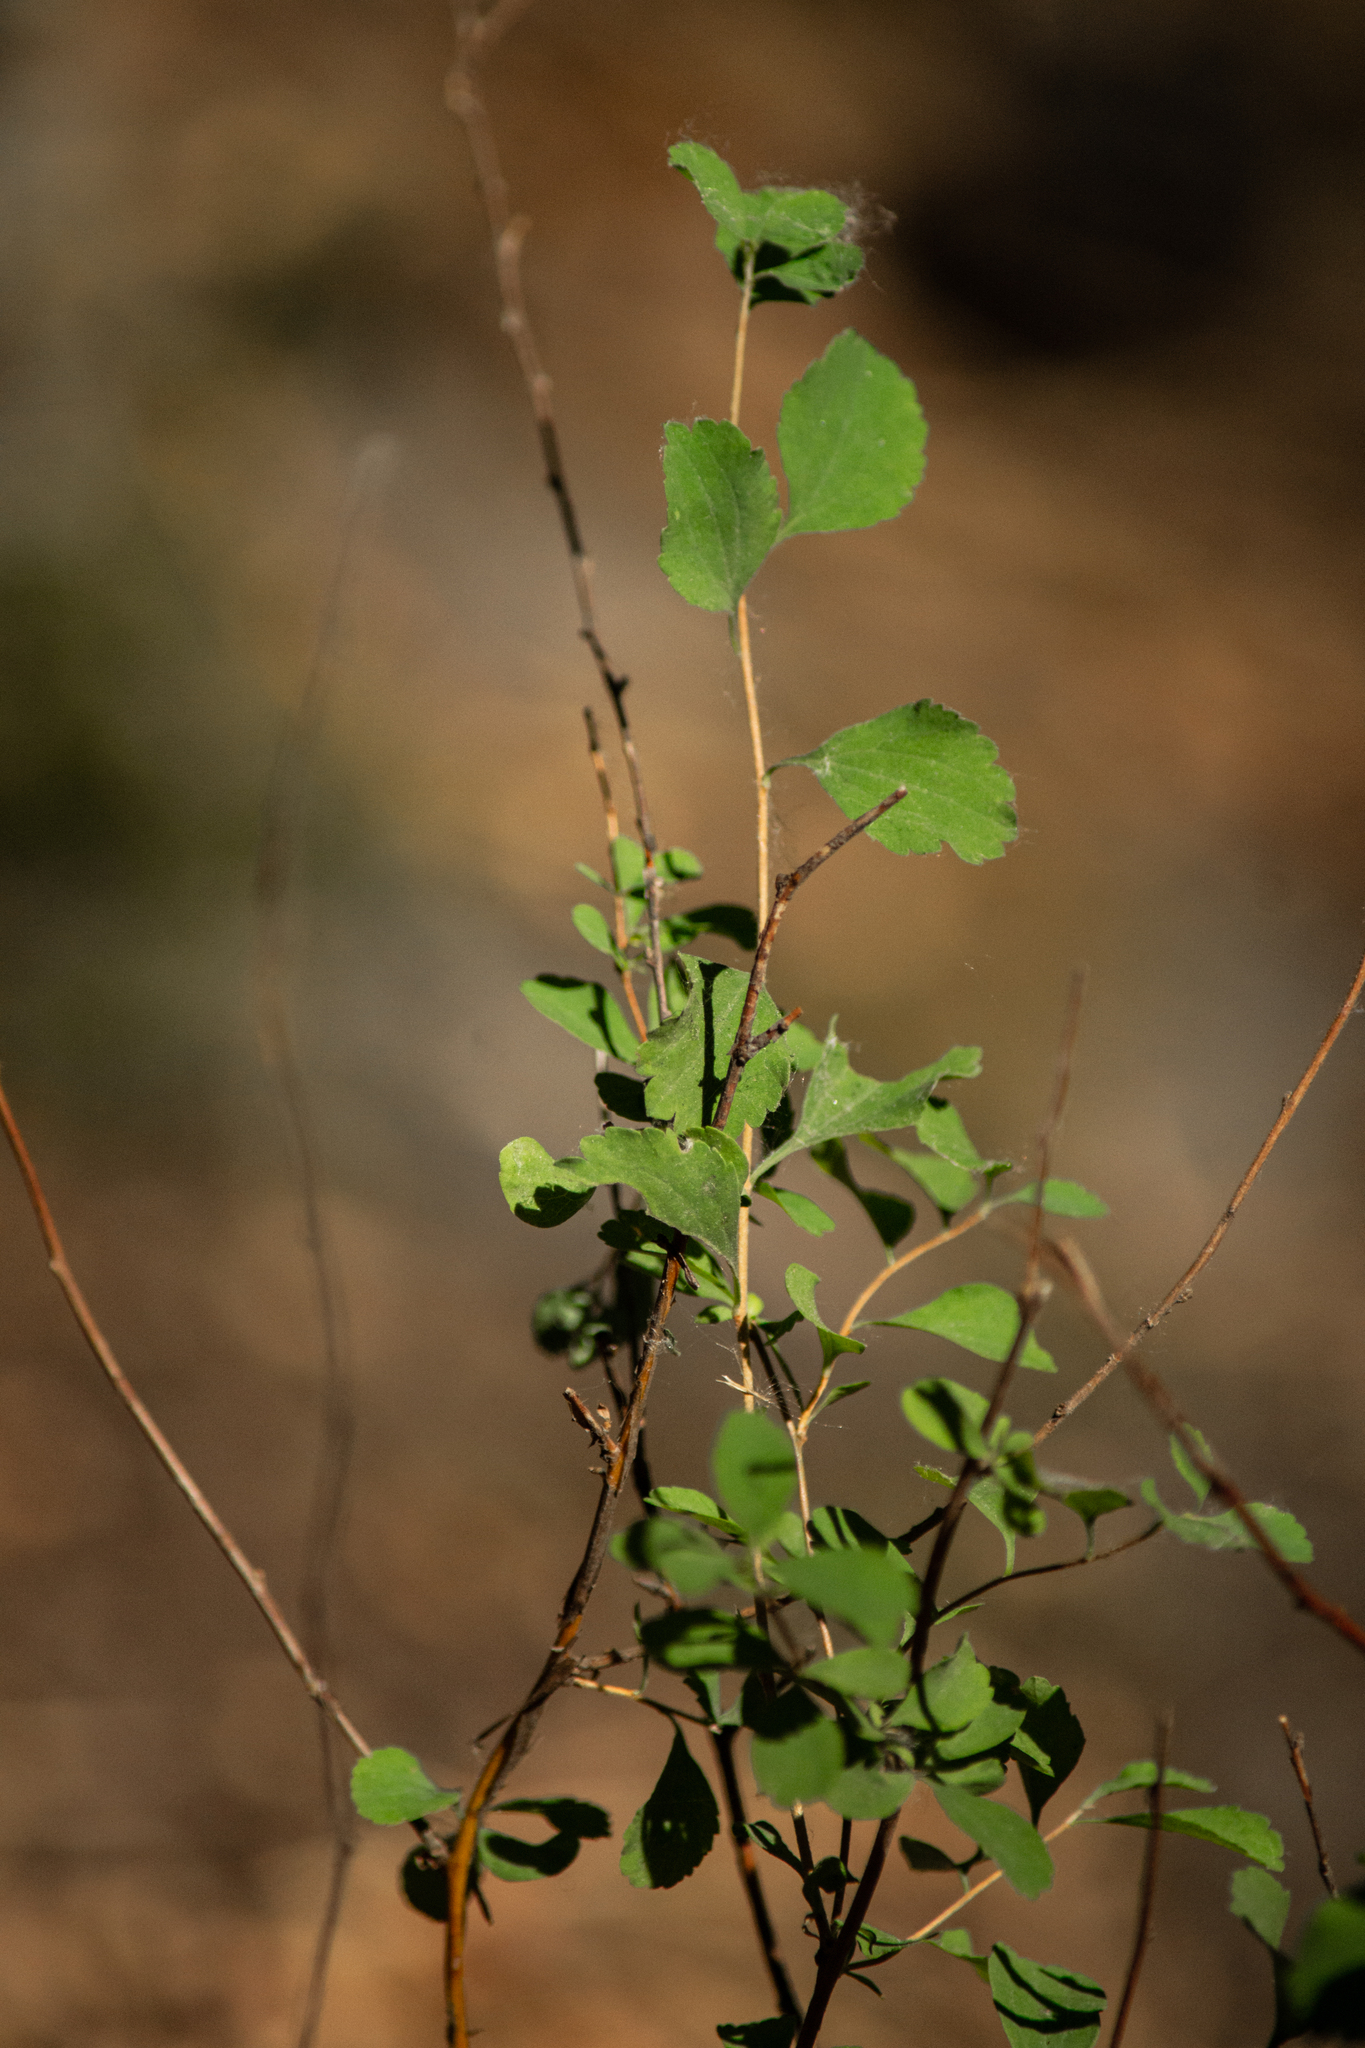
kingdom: Plantae
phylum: Tracheophyta
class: Magnoliopsida
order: Rosales
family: Rosaceae
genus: Spiraea
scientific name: Spiraea crenata
